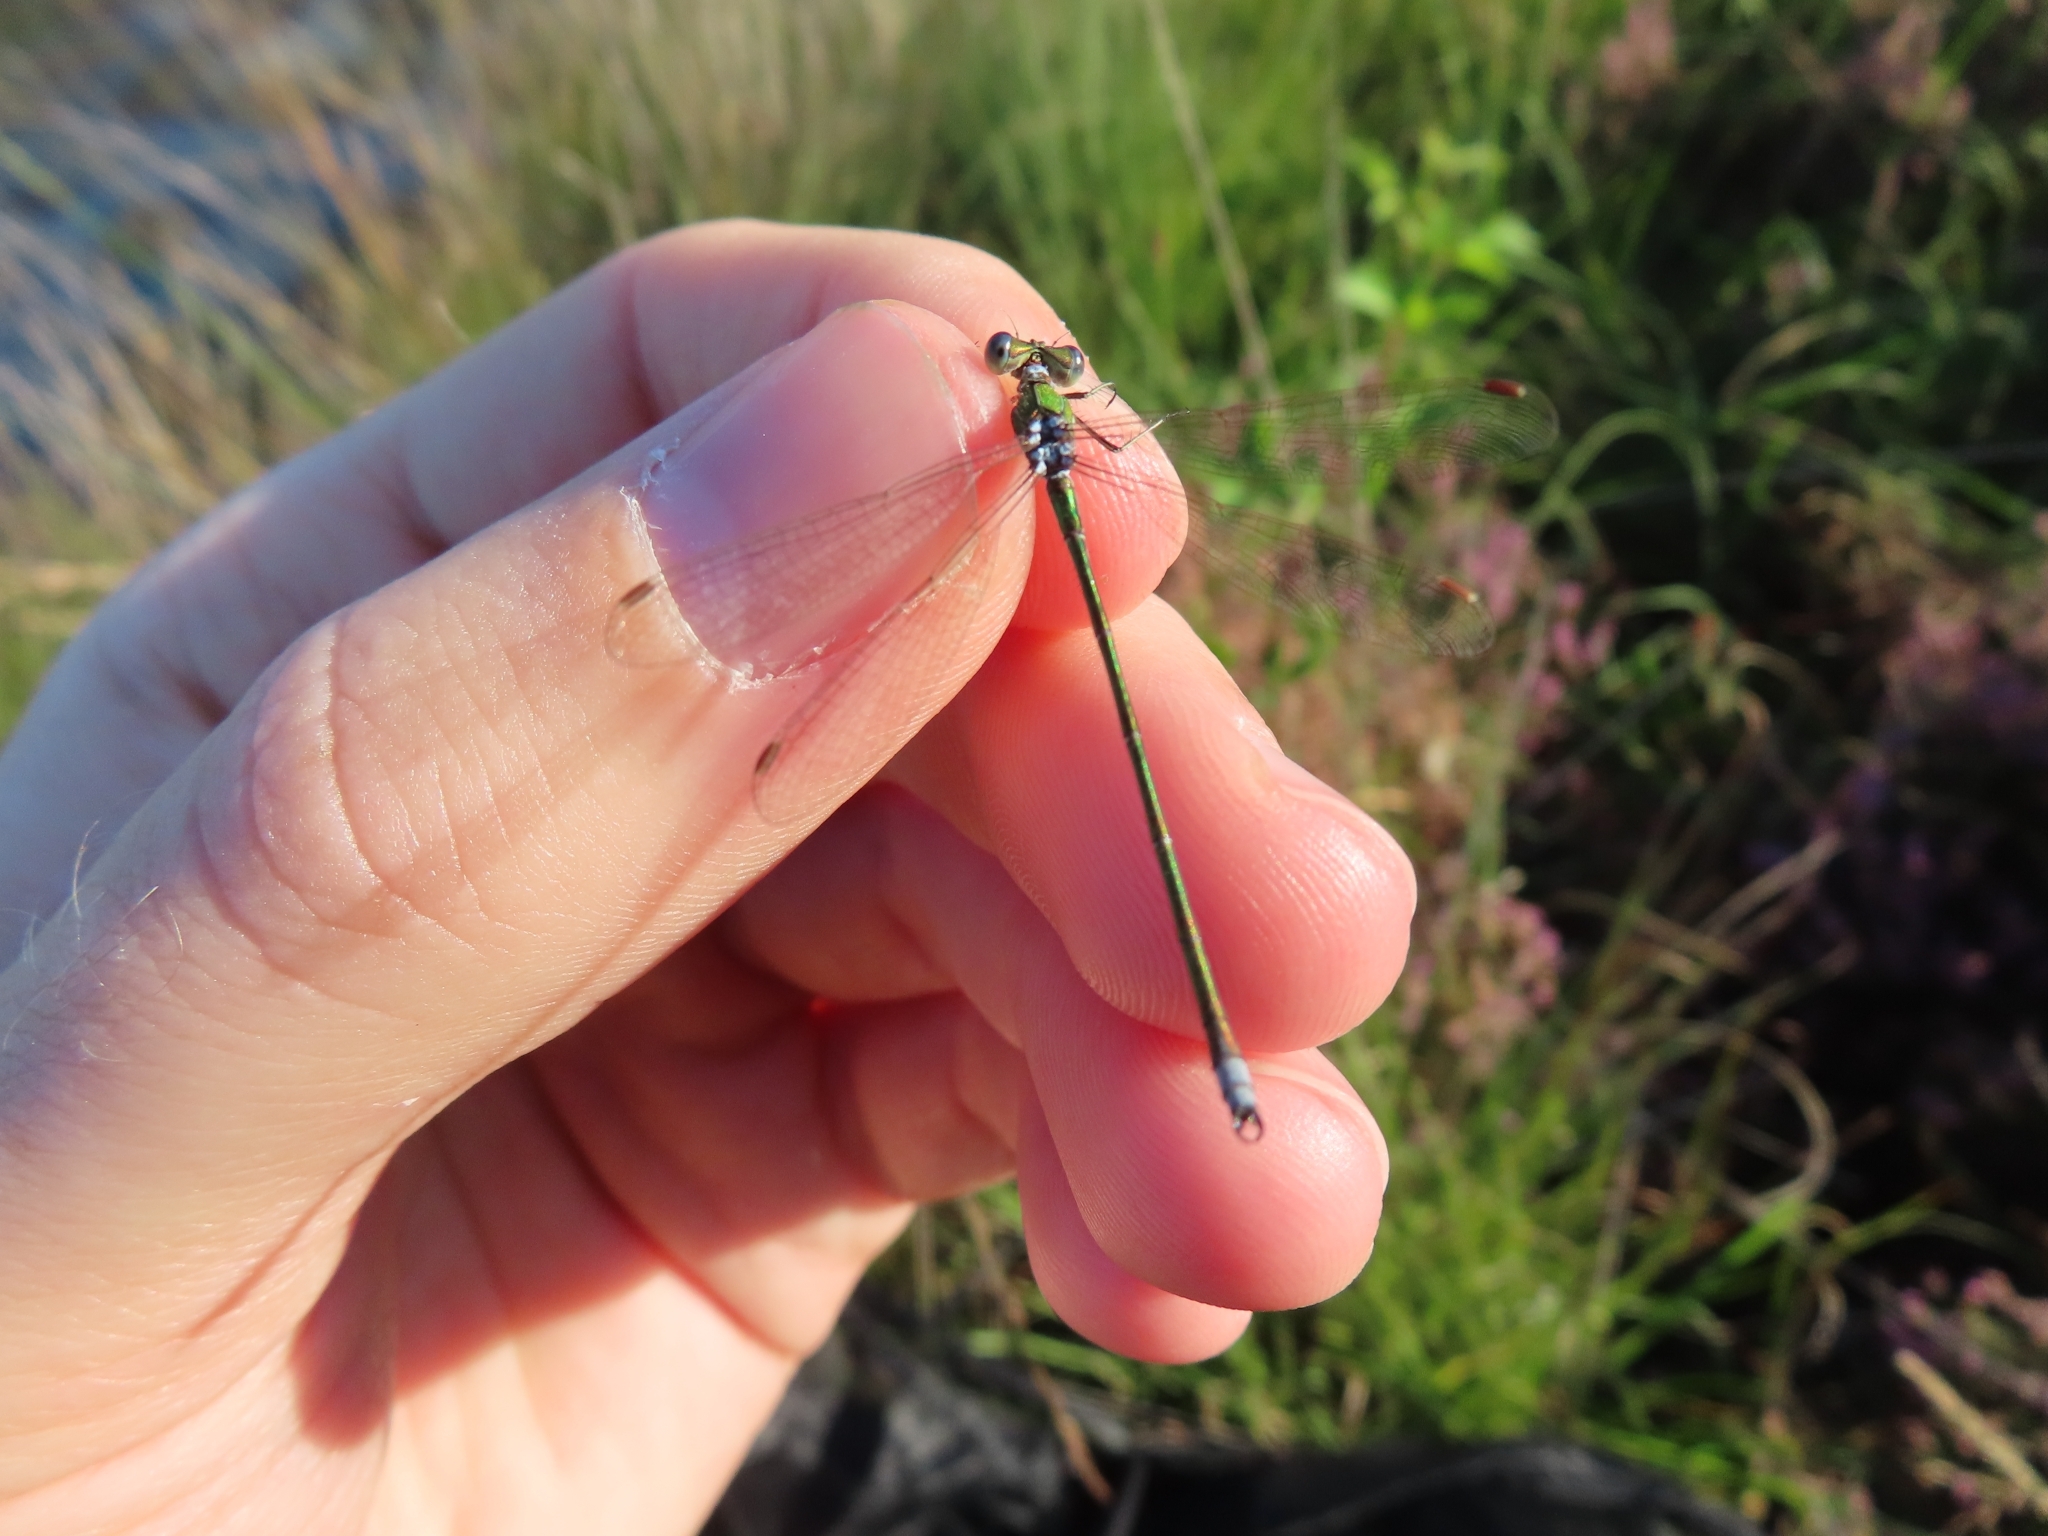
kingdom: Animalia
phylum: Arthropoda
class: Insecta
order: Odonata
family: Lestidae
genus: Lestes
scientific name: Lestes virens
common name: Small emerald spreadwing
